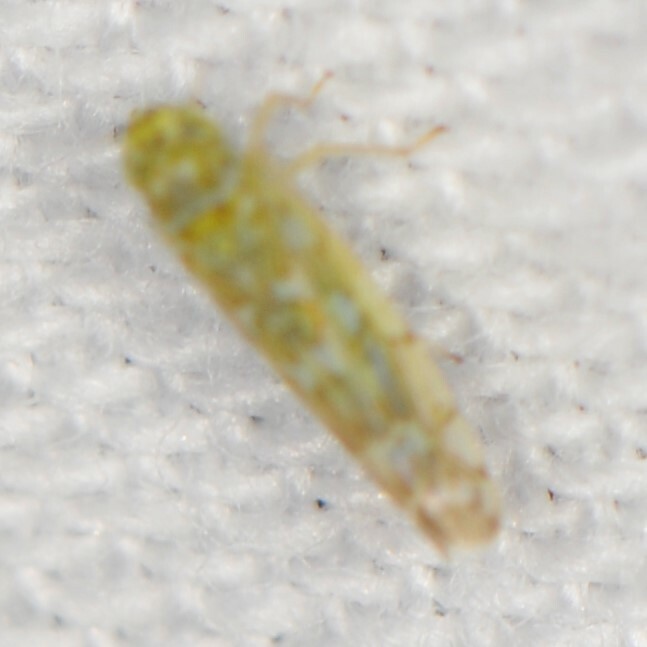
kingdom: Animalia
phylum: Arthropoda
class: Insecta
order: Hemiptera
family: Cicadellidae
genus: Eupteryx
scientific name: Eupteryx decemnotata
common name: Ligurian leafhopper
